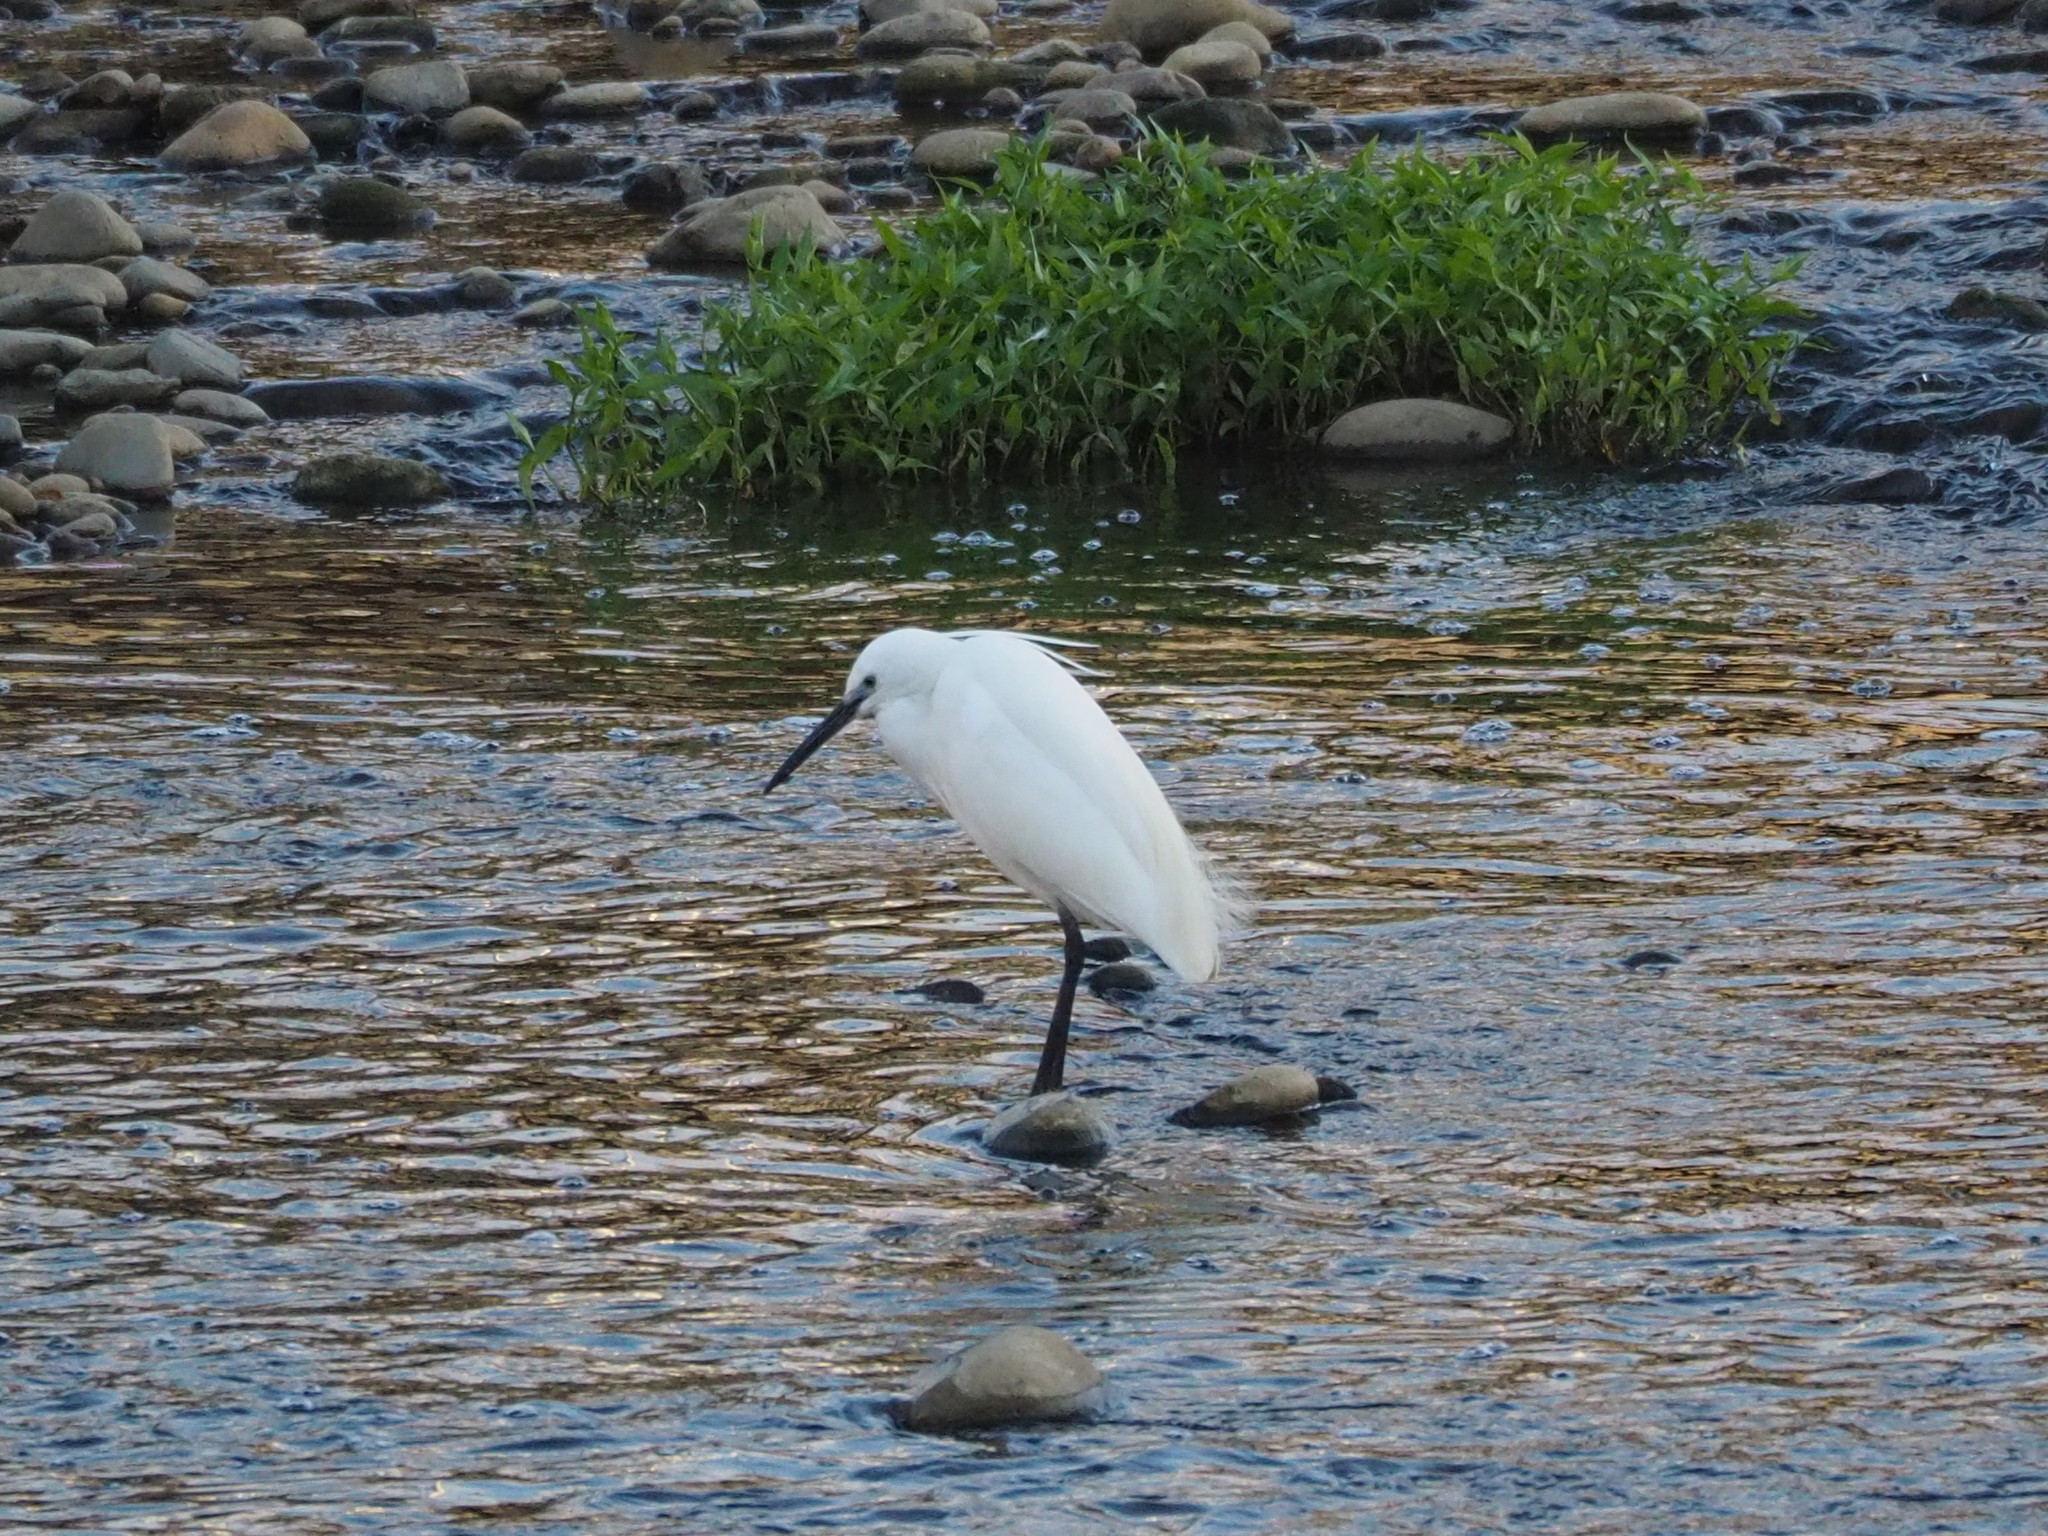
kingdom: Animalia
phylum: Chordata
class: Aves
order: Pelecaniformes
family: Ardeidae
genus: Egretta
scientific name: Egretta garzetta
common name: Little egret
